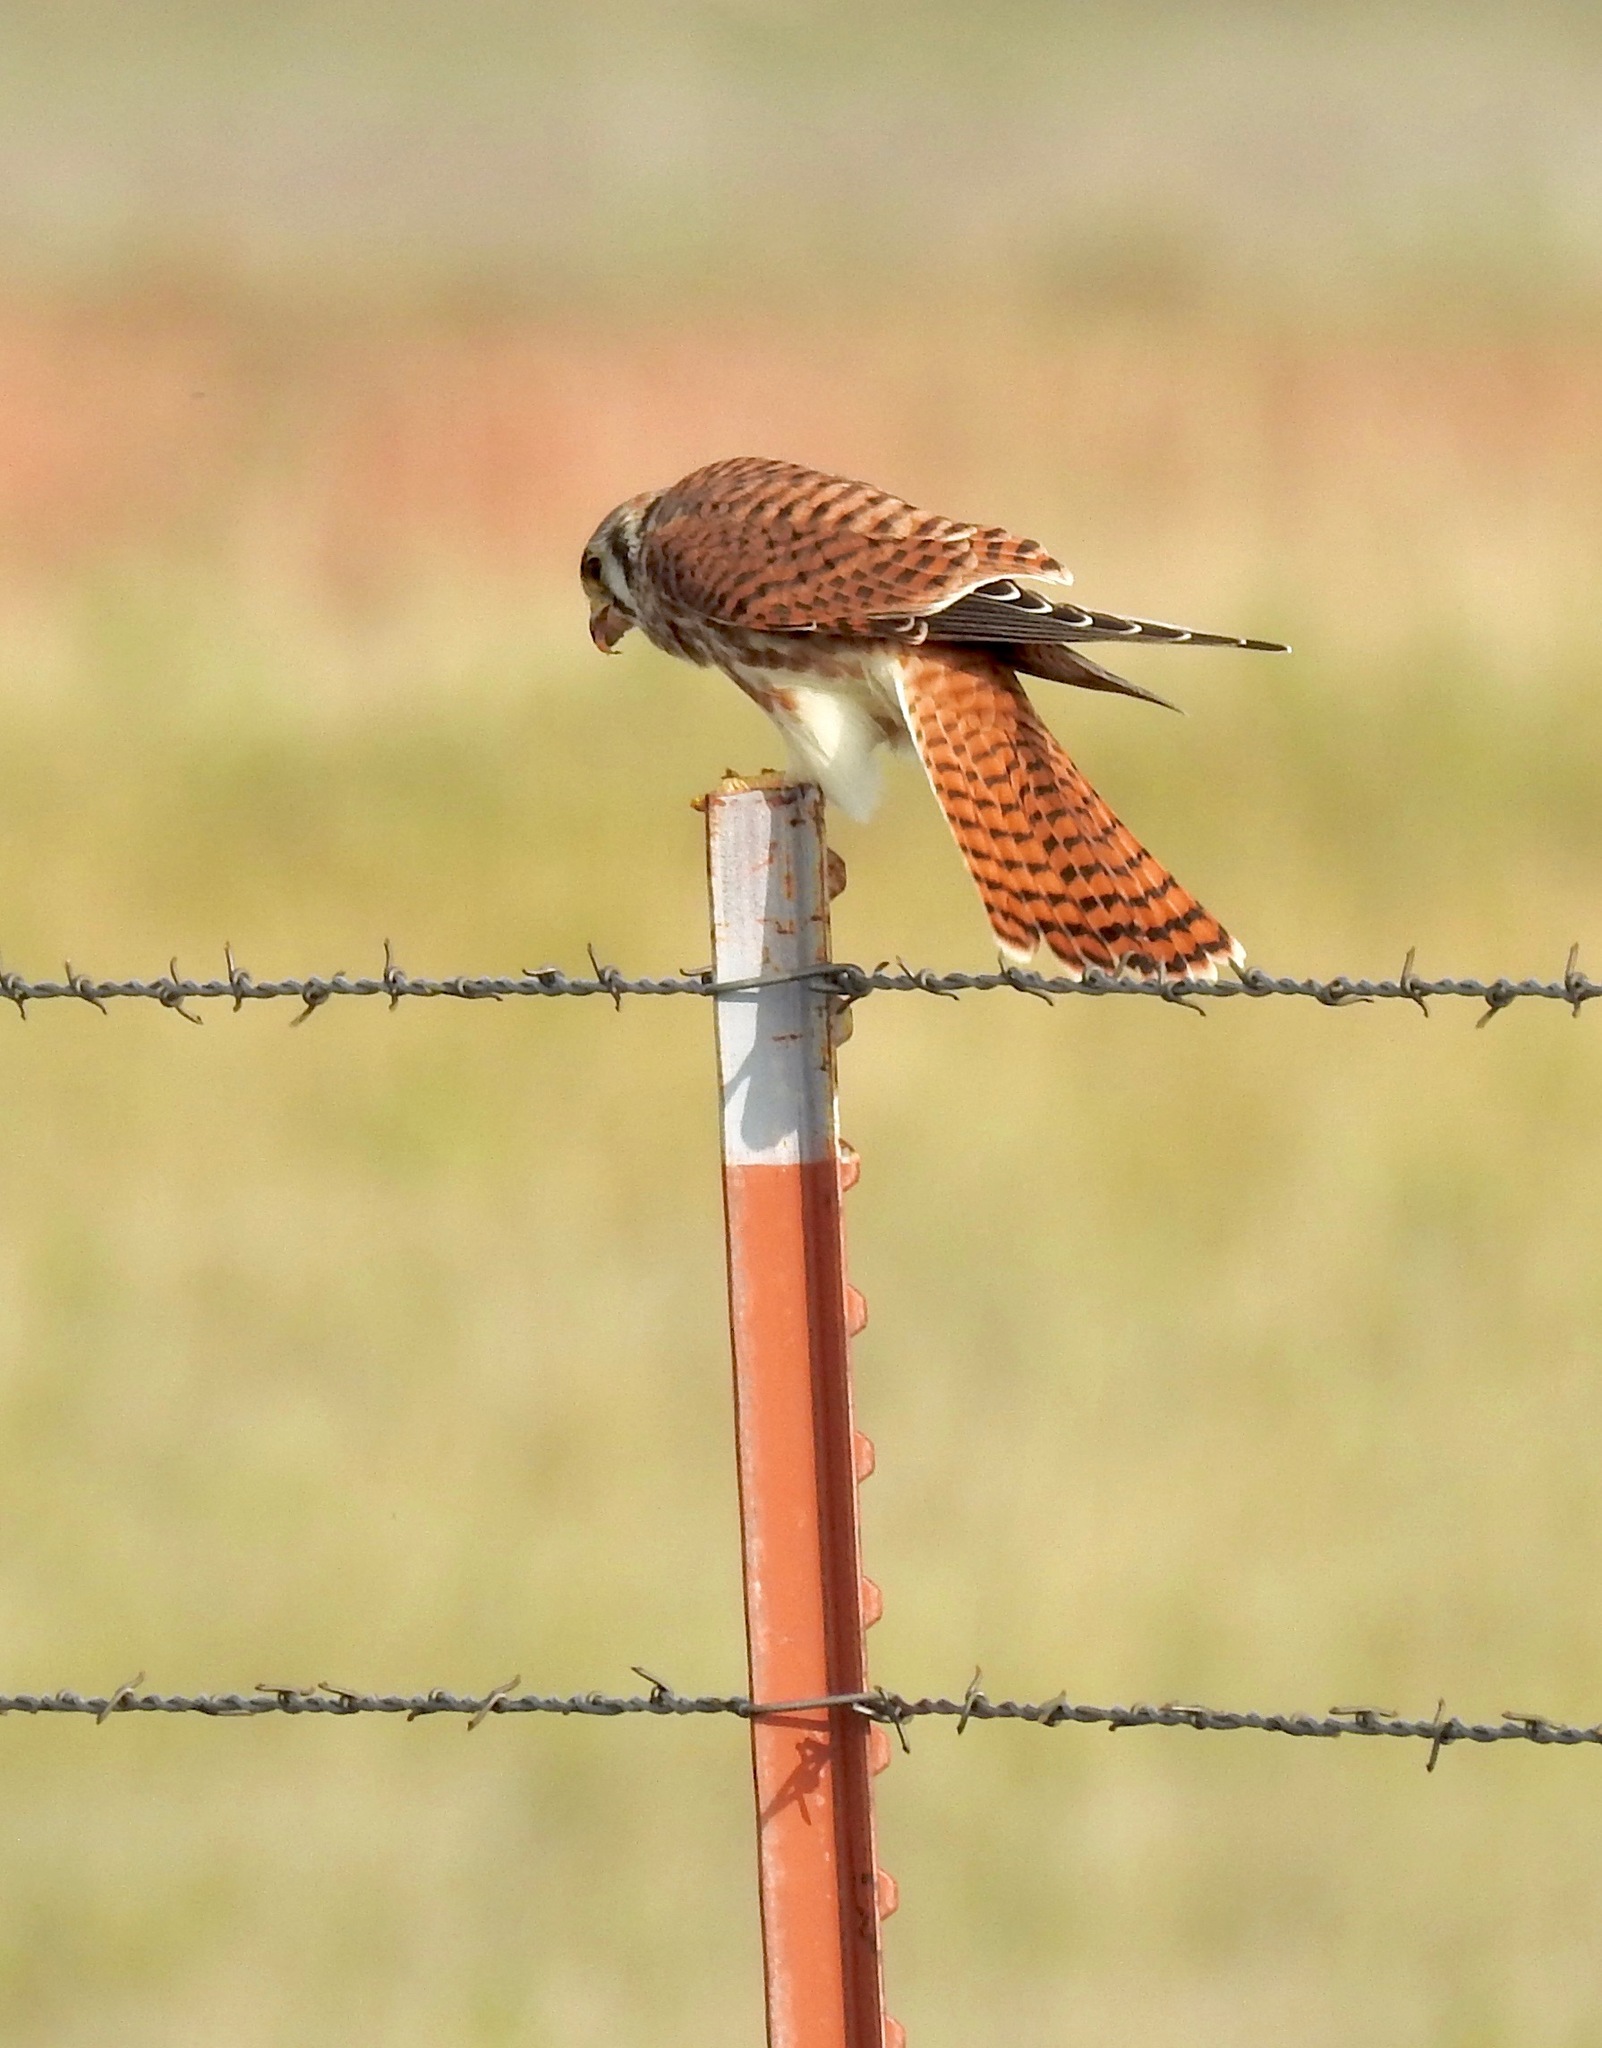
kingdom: Animalia
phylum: Chordata
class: Aves
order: Falconiformes
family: Falconidae
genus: Falco
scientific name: Falco sparverius
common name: American kestrel
